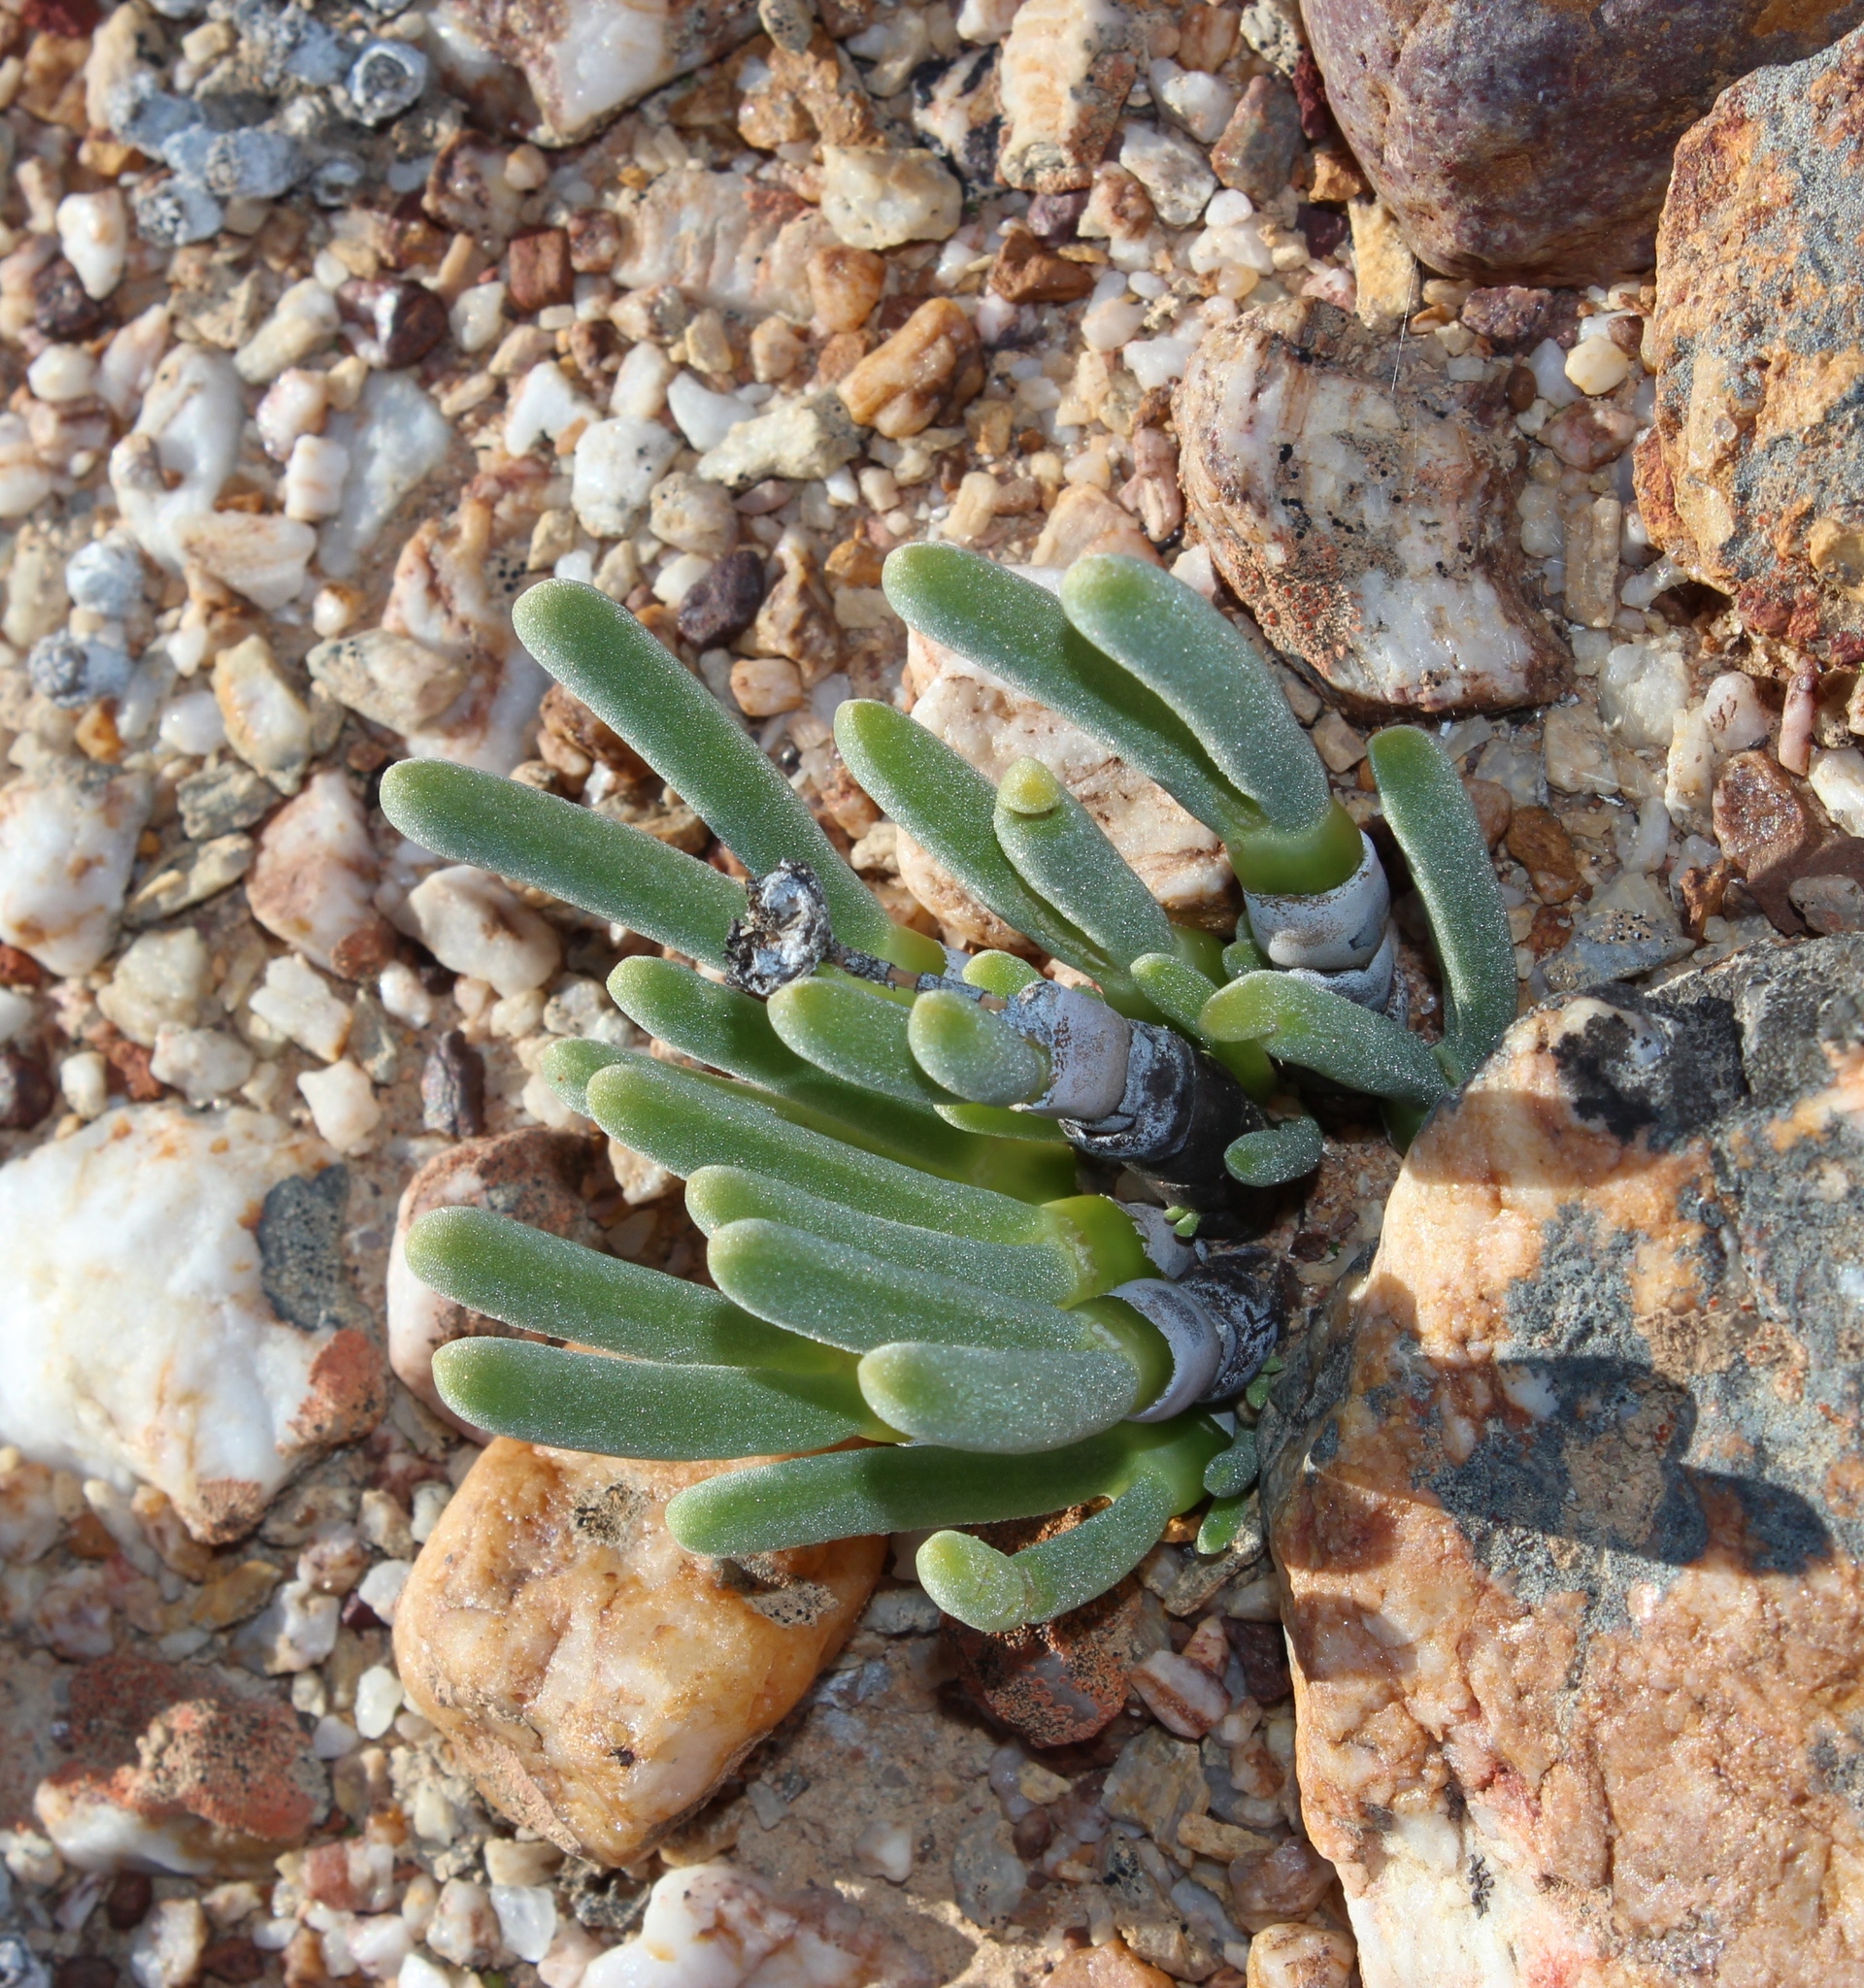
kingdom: Plantae
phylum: Tracheophyta
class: Magnoliopsida
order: Caryophyllales
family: Aizoaceae
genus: Dracophilus
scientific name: Dracophilus Monilaria pisiformis
